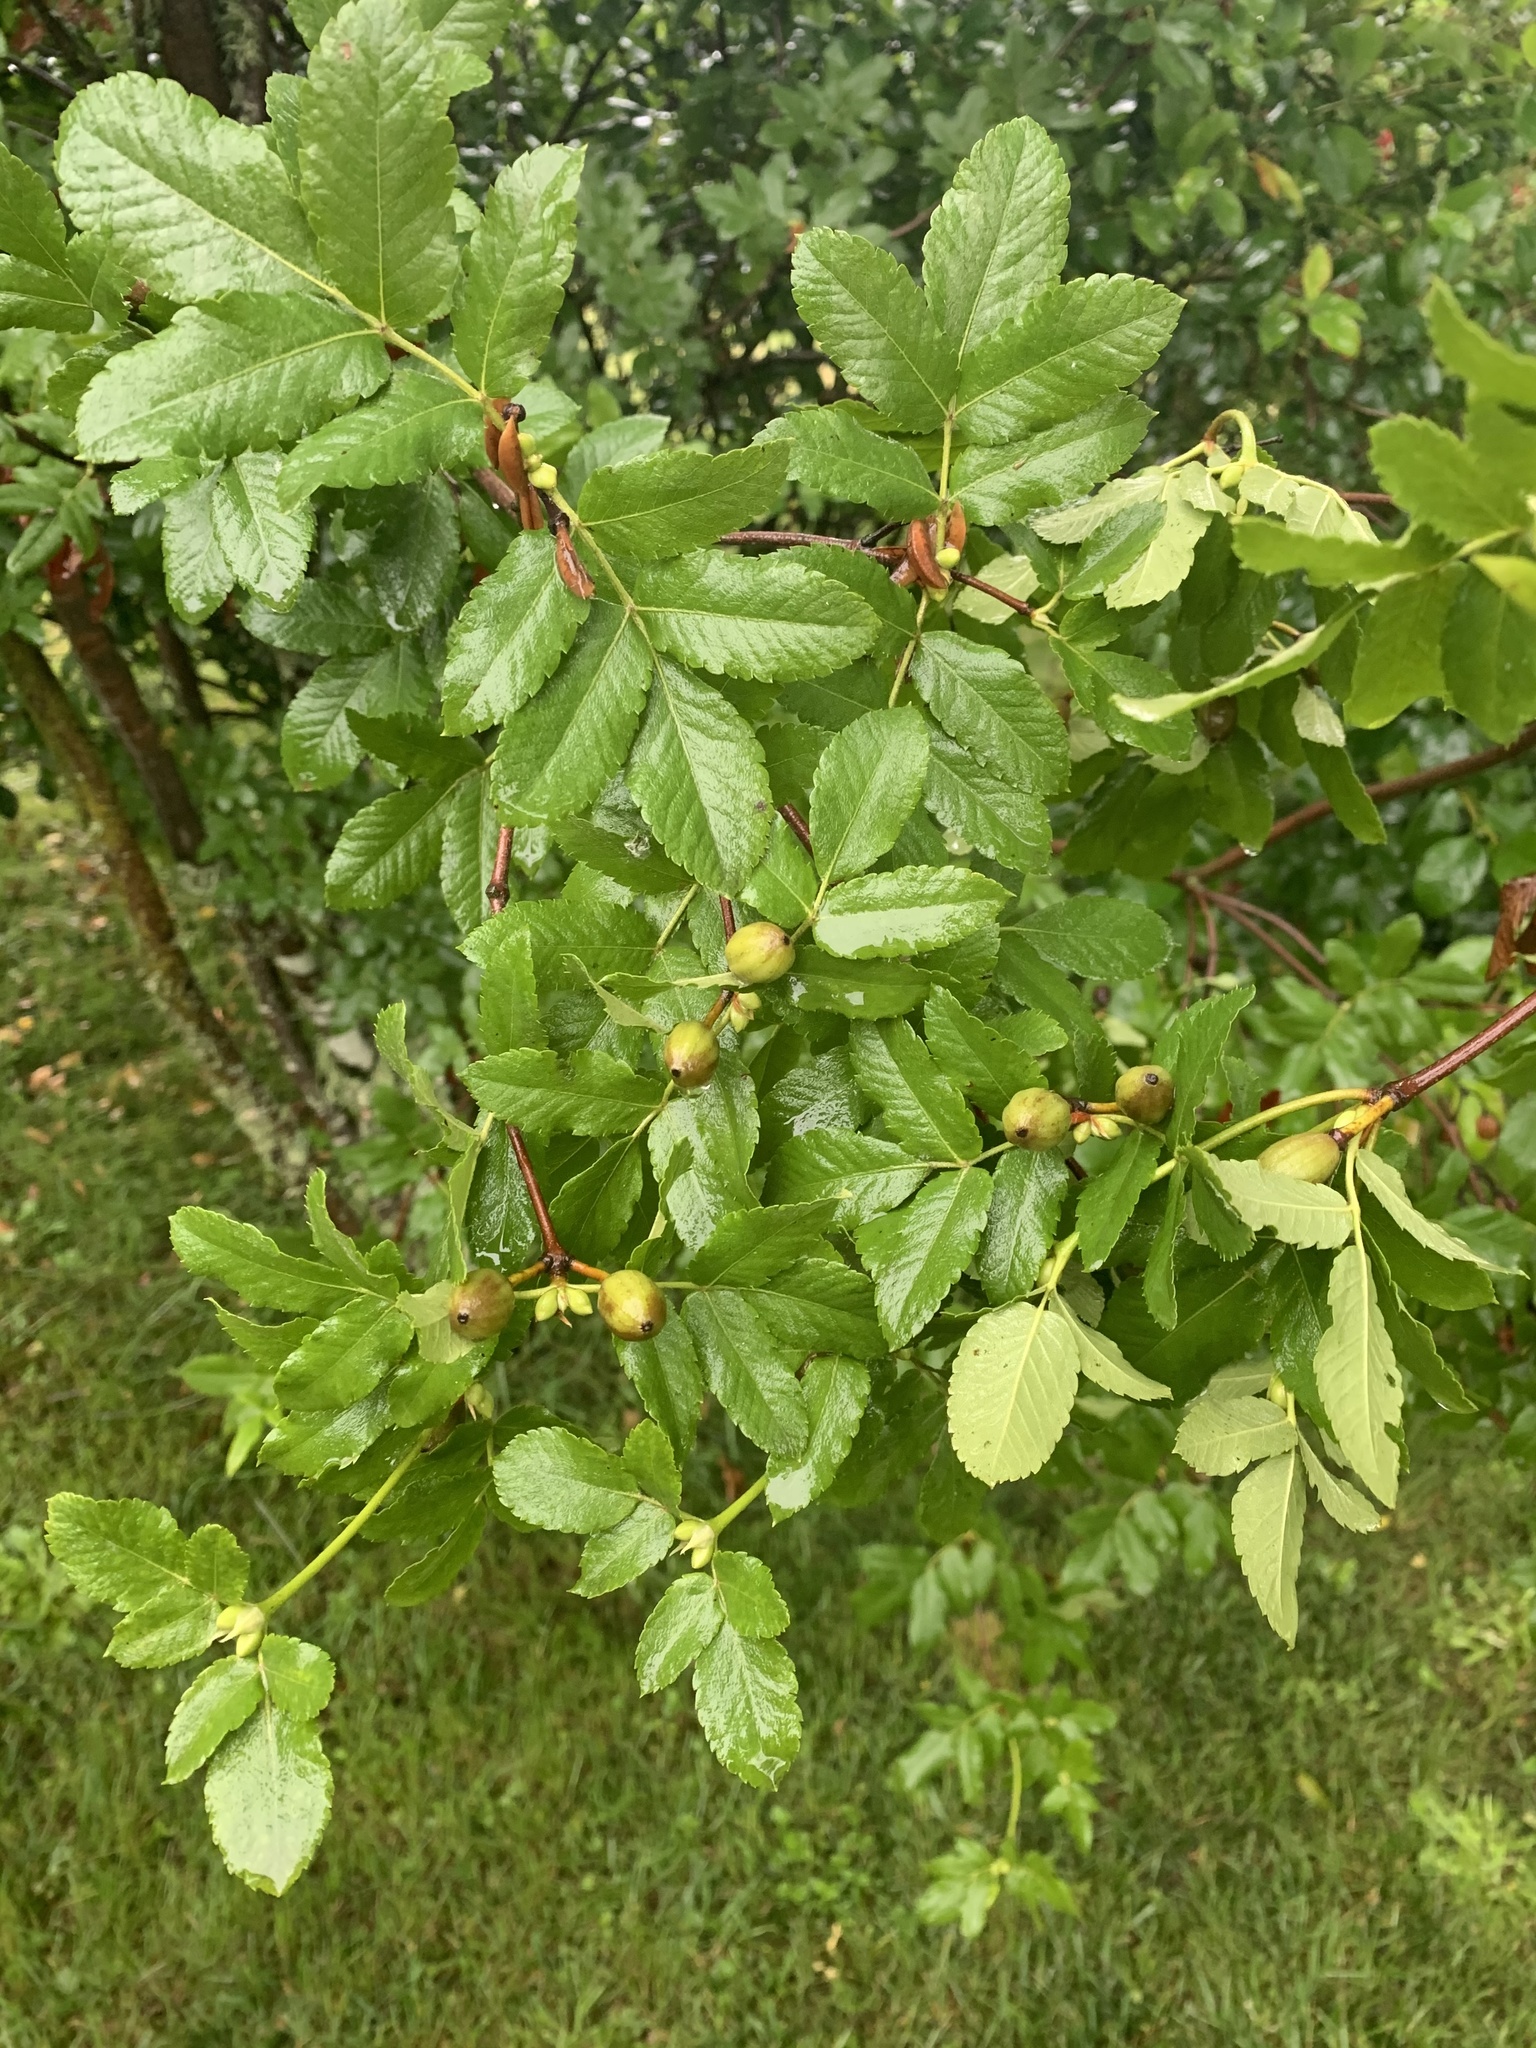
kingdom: Plantae
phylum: Tracheophyta
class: Magnoliopsida
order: Oxalidales
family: Cunoniaceae
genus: Eucryphia
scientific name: Eucryphia glutinosa
